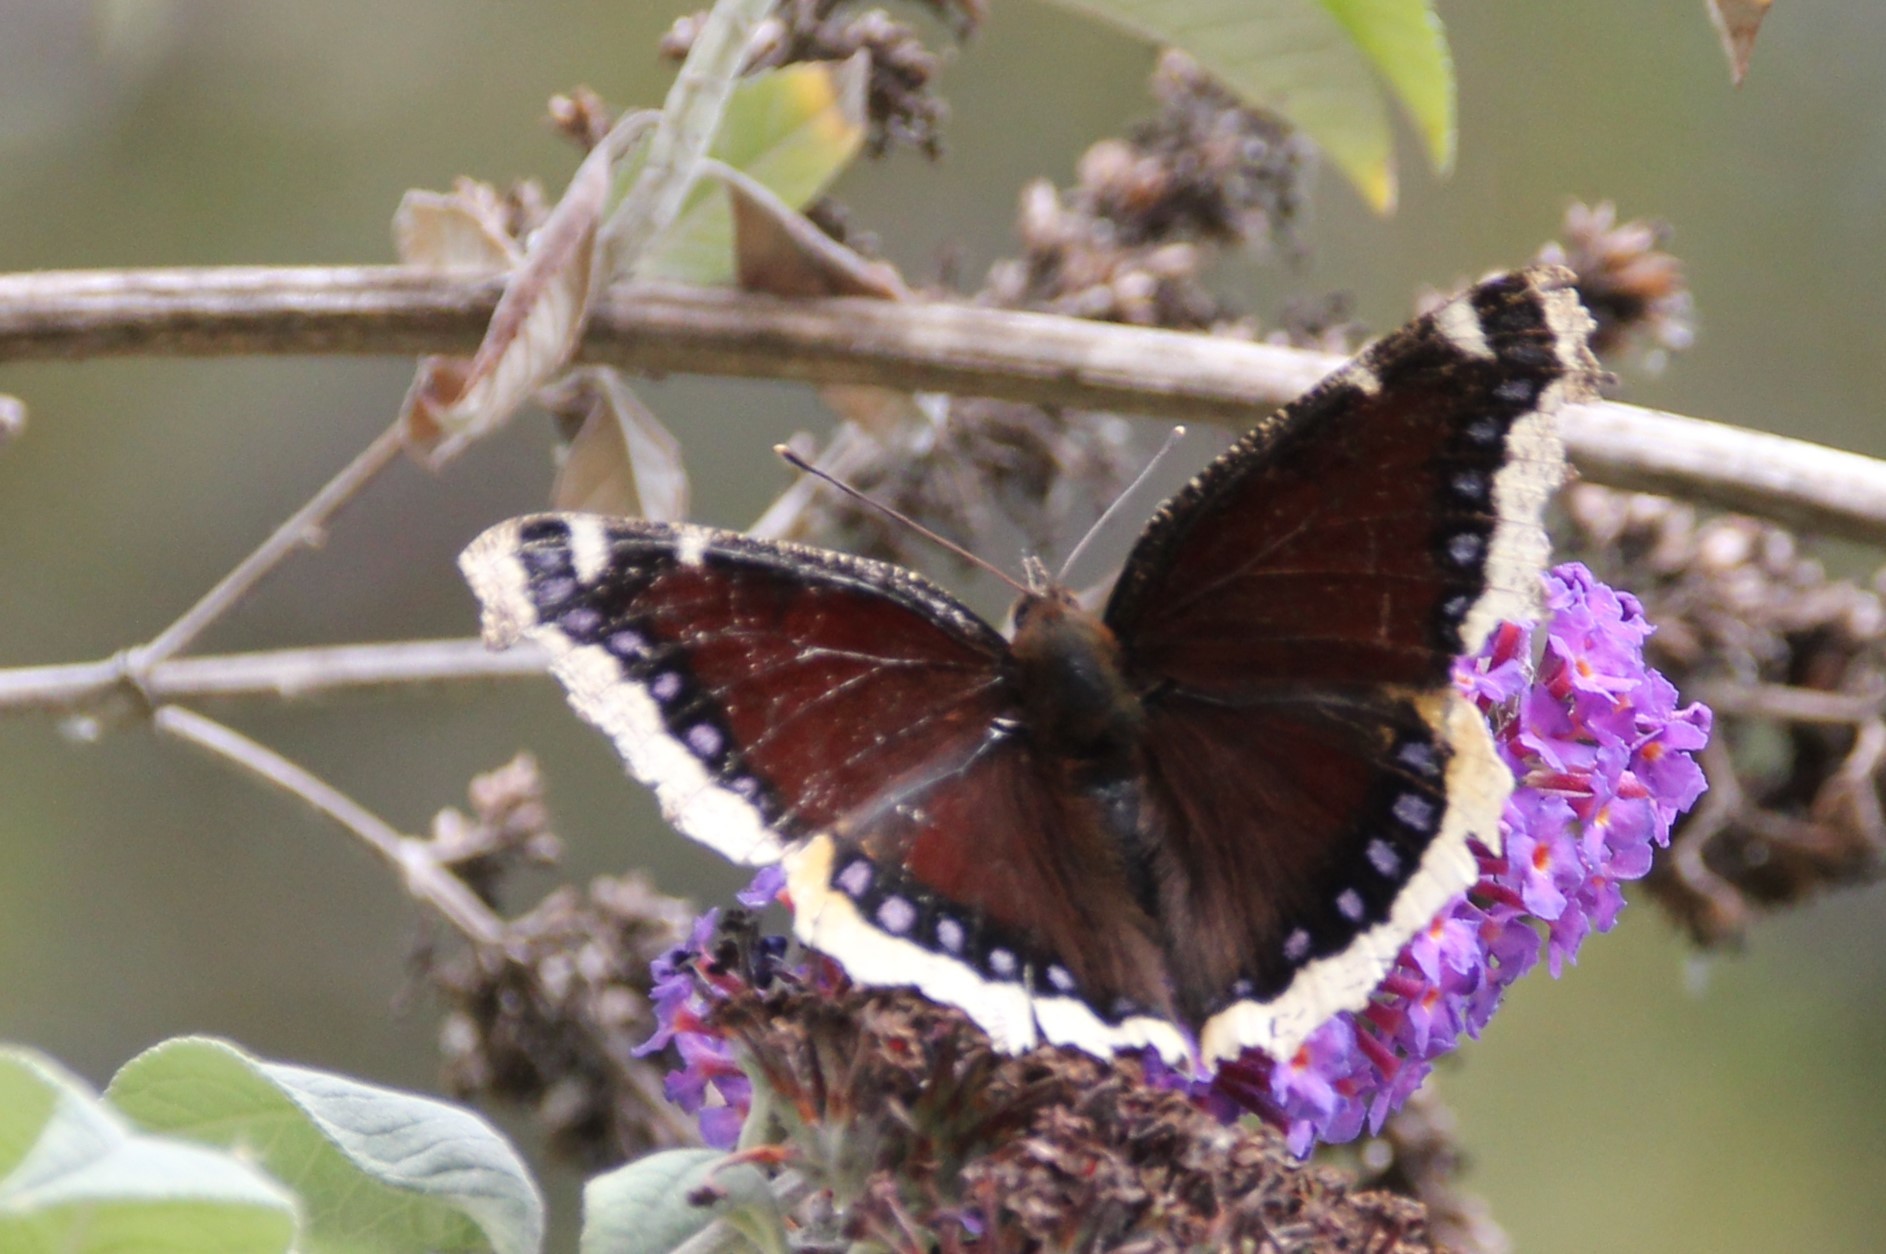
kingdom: Animalia
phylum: Arthropoda
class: Insecta
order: Lepidoptera
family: Nymphalidae
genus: Nymphalis
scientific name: Nymphalis antiopa
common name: Camberwell beauty
